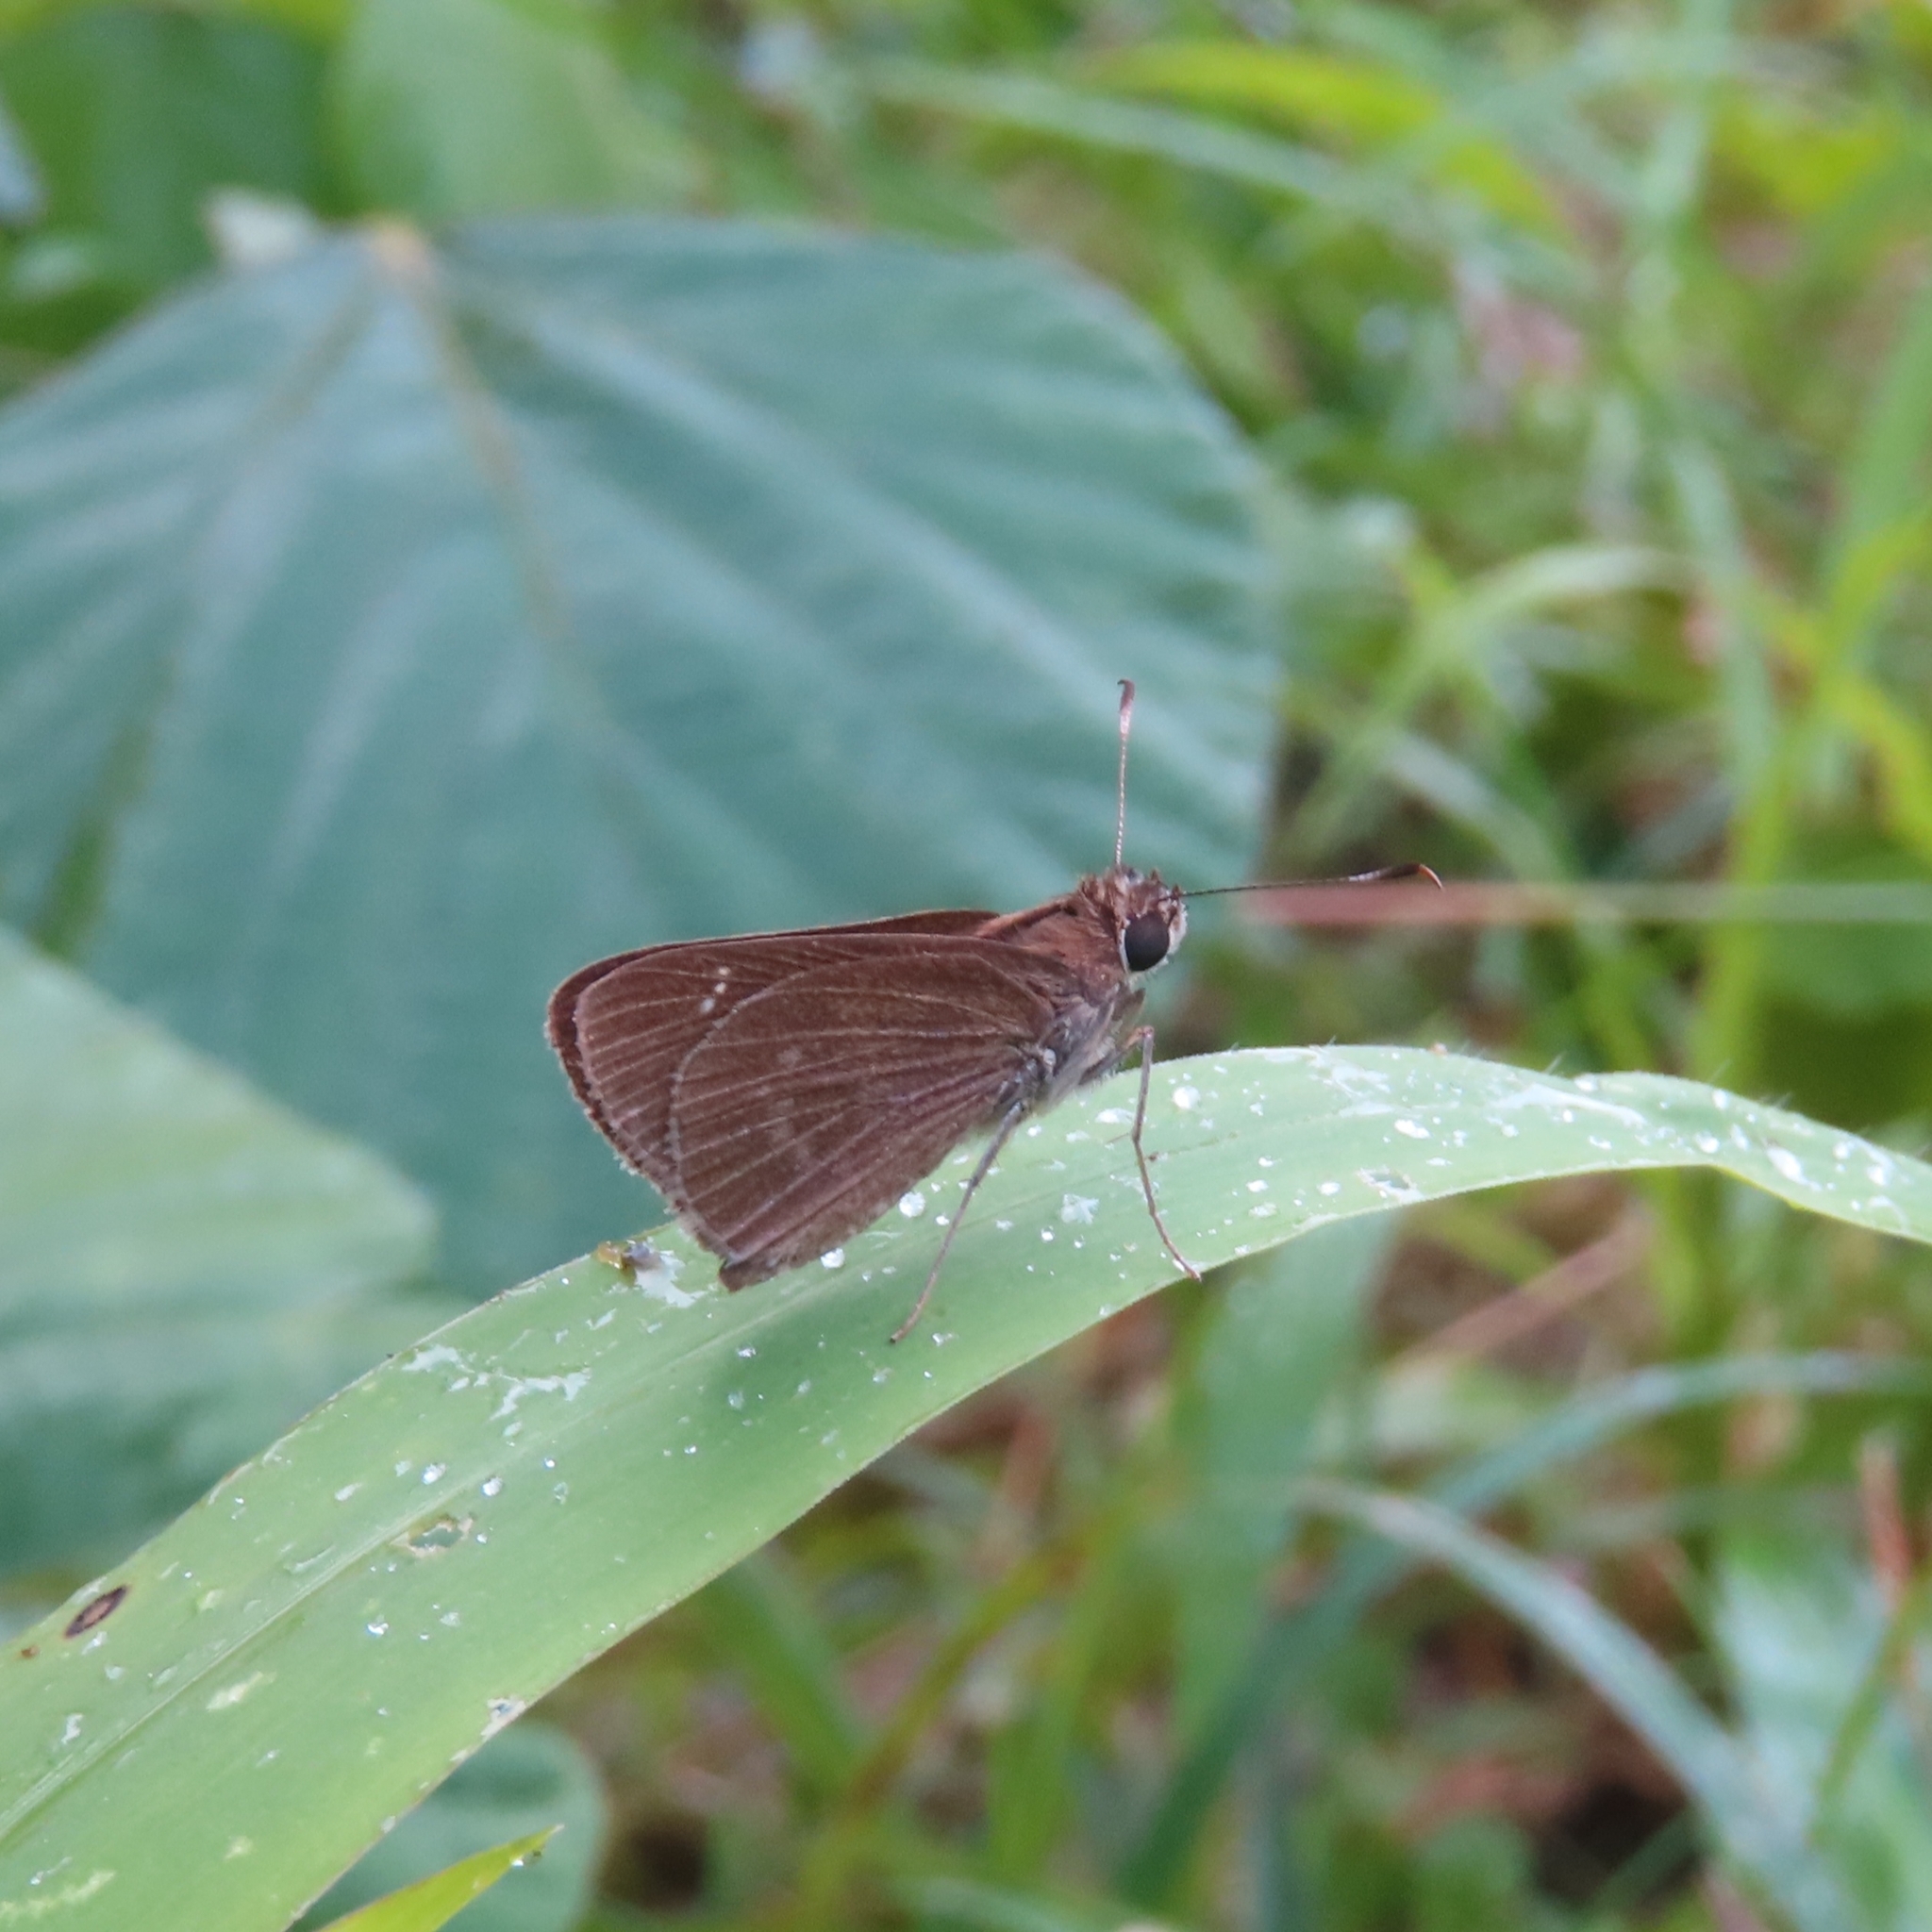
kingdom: Animalia
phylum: Arthropoda
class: Insecta
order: Lepidoptera
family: Hesperiidae
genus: Cymaenes
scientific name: Cymaenes tripunctus
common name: Dingy dotted skipper
